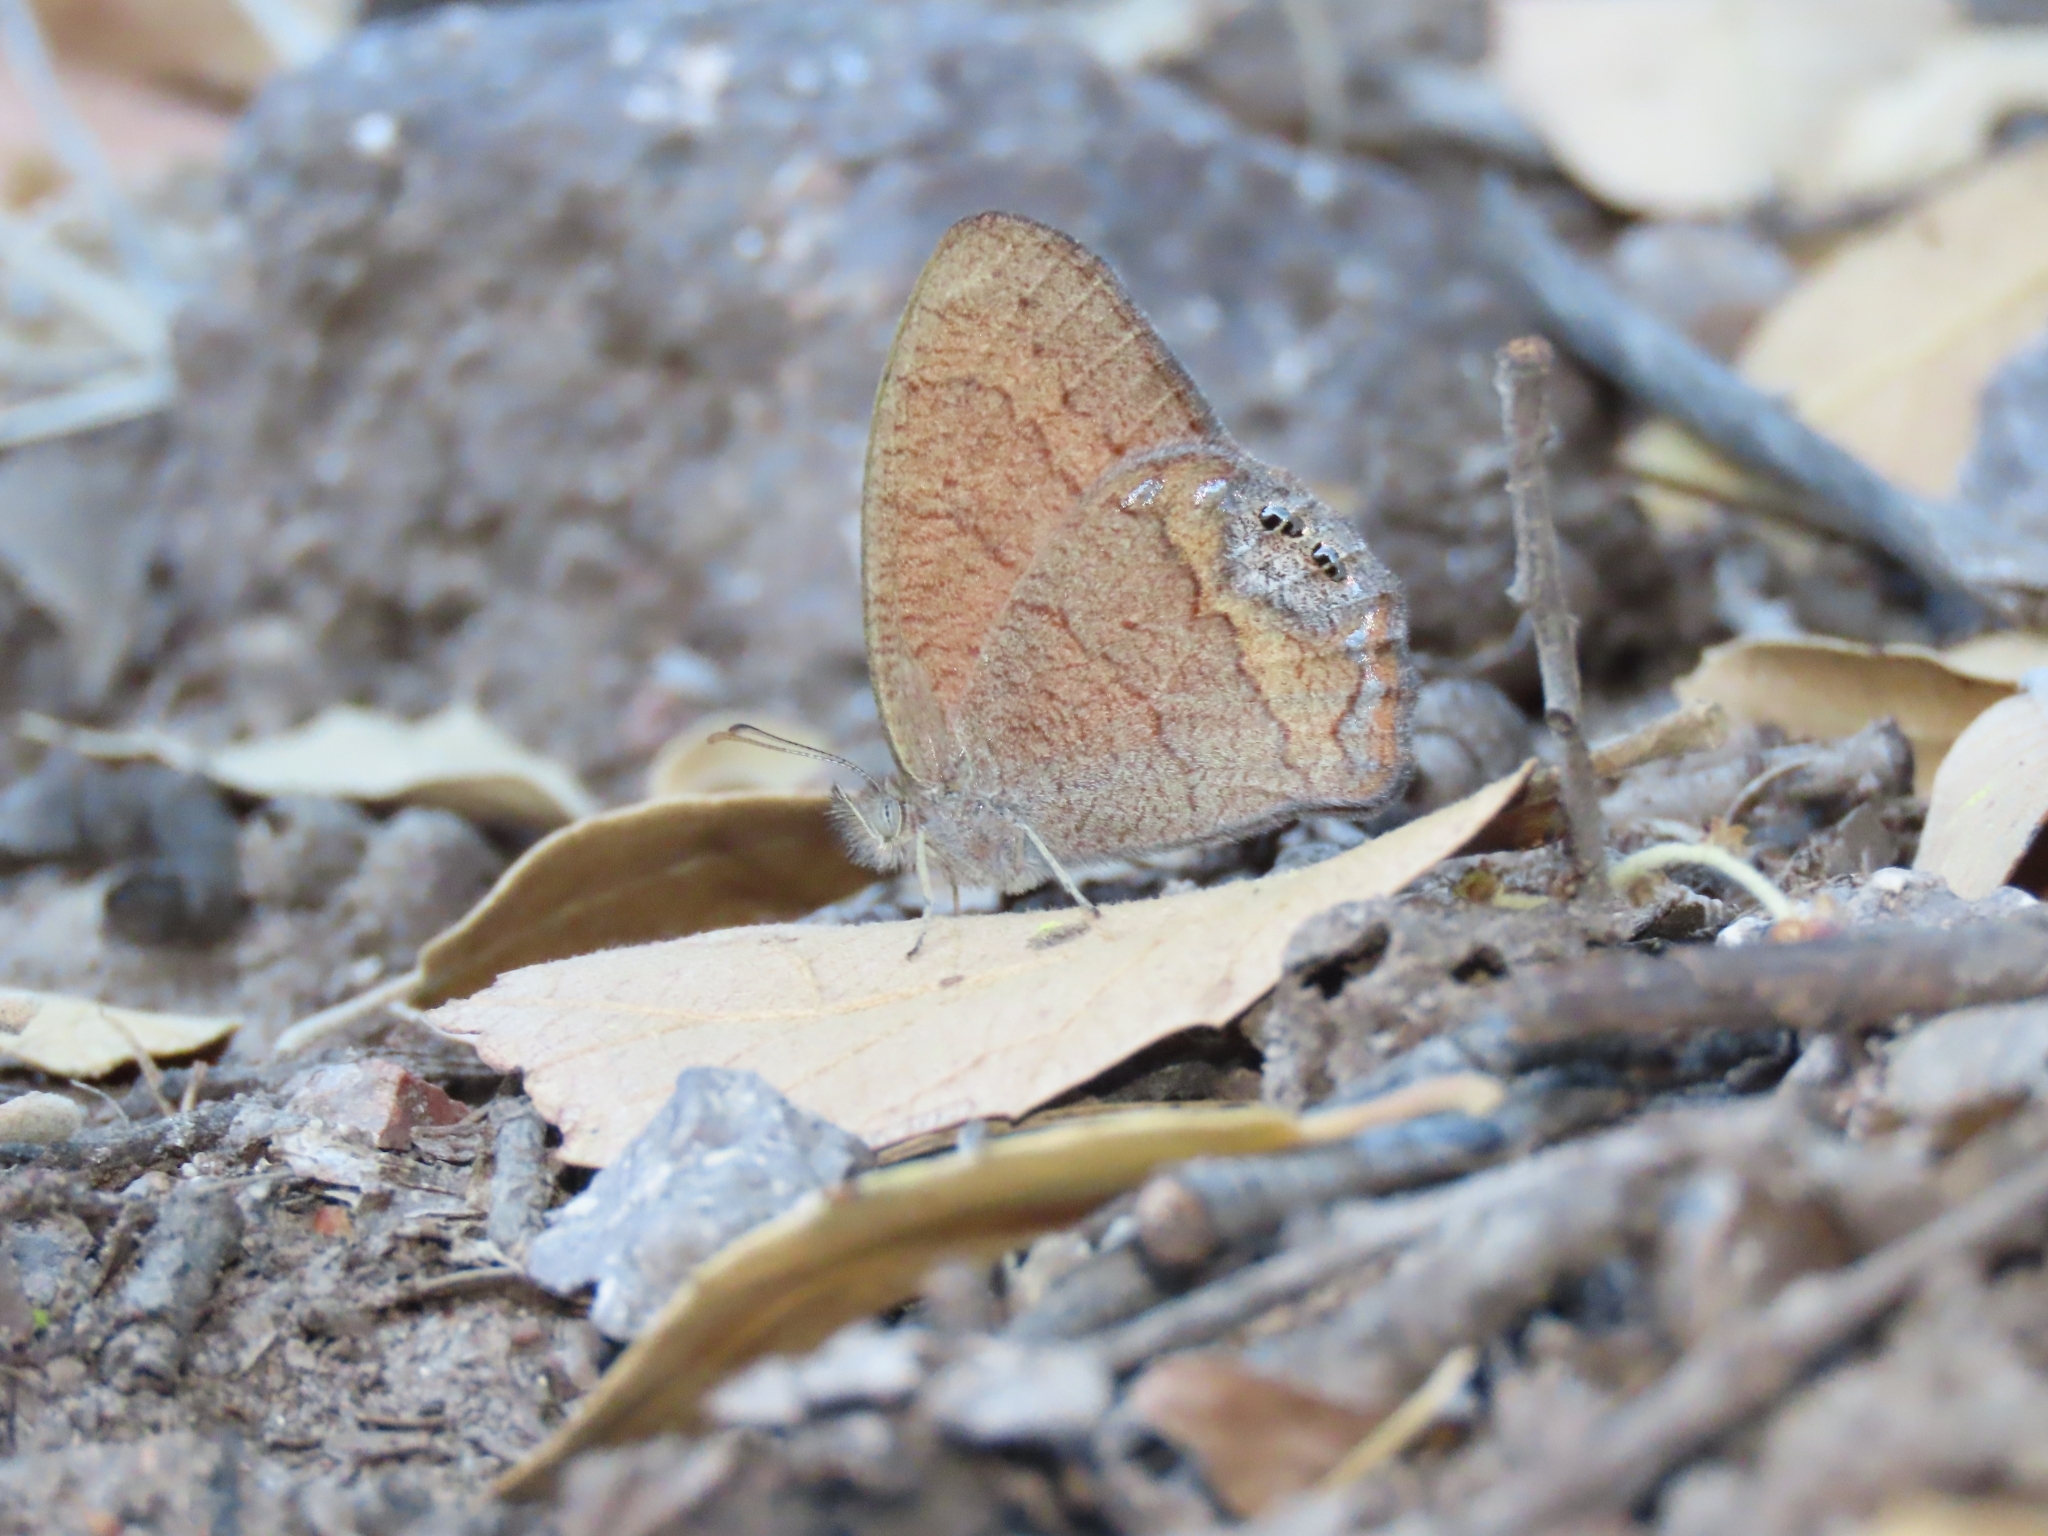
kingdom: Animalia
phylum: Arthropoda
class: Insecta
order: Lepidoptera
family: Nymphalidae
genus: Euptychia
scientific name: Euptychia pyracmon
